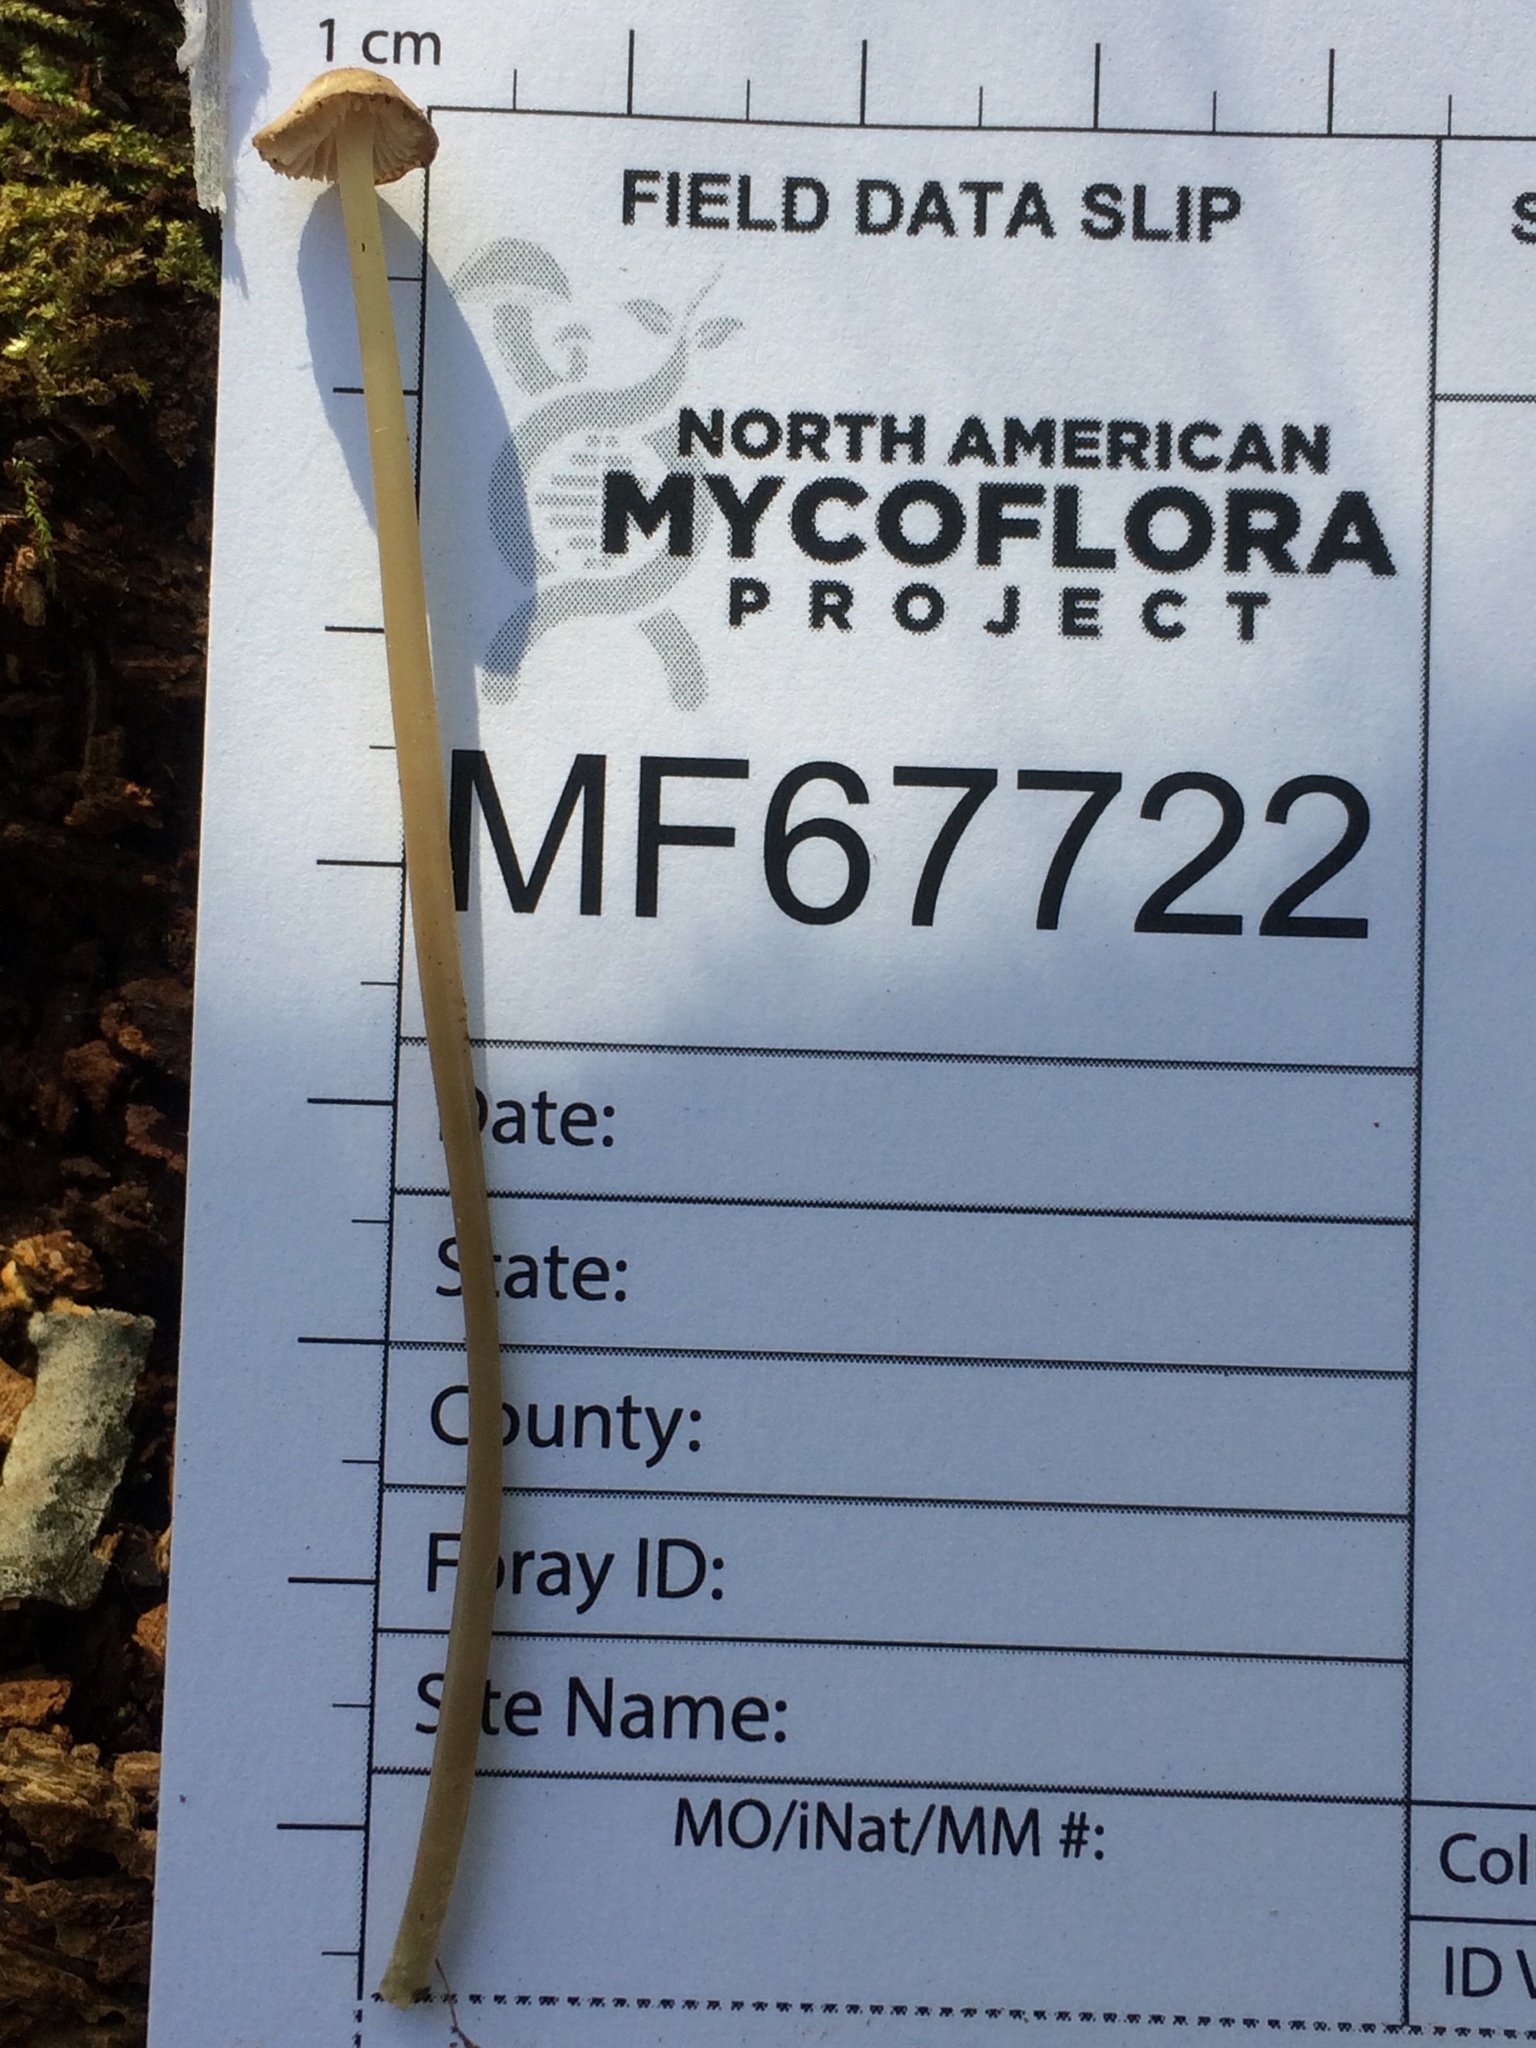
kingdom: Fungi
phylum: Basidiomycota
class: Agaricomycetes
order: Agaricales
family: Mycenaceae
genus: Mycena
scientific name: Mycena filopes
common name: Iodine bonnet
